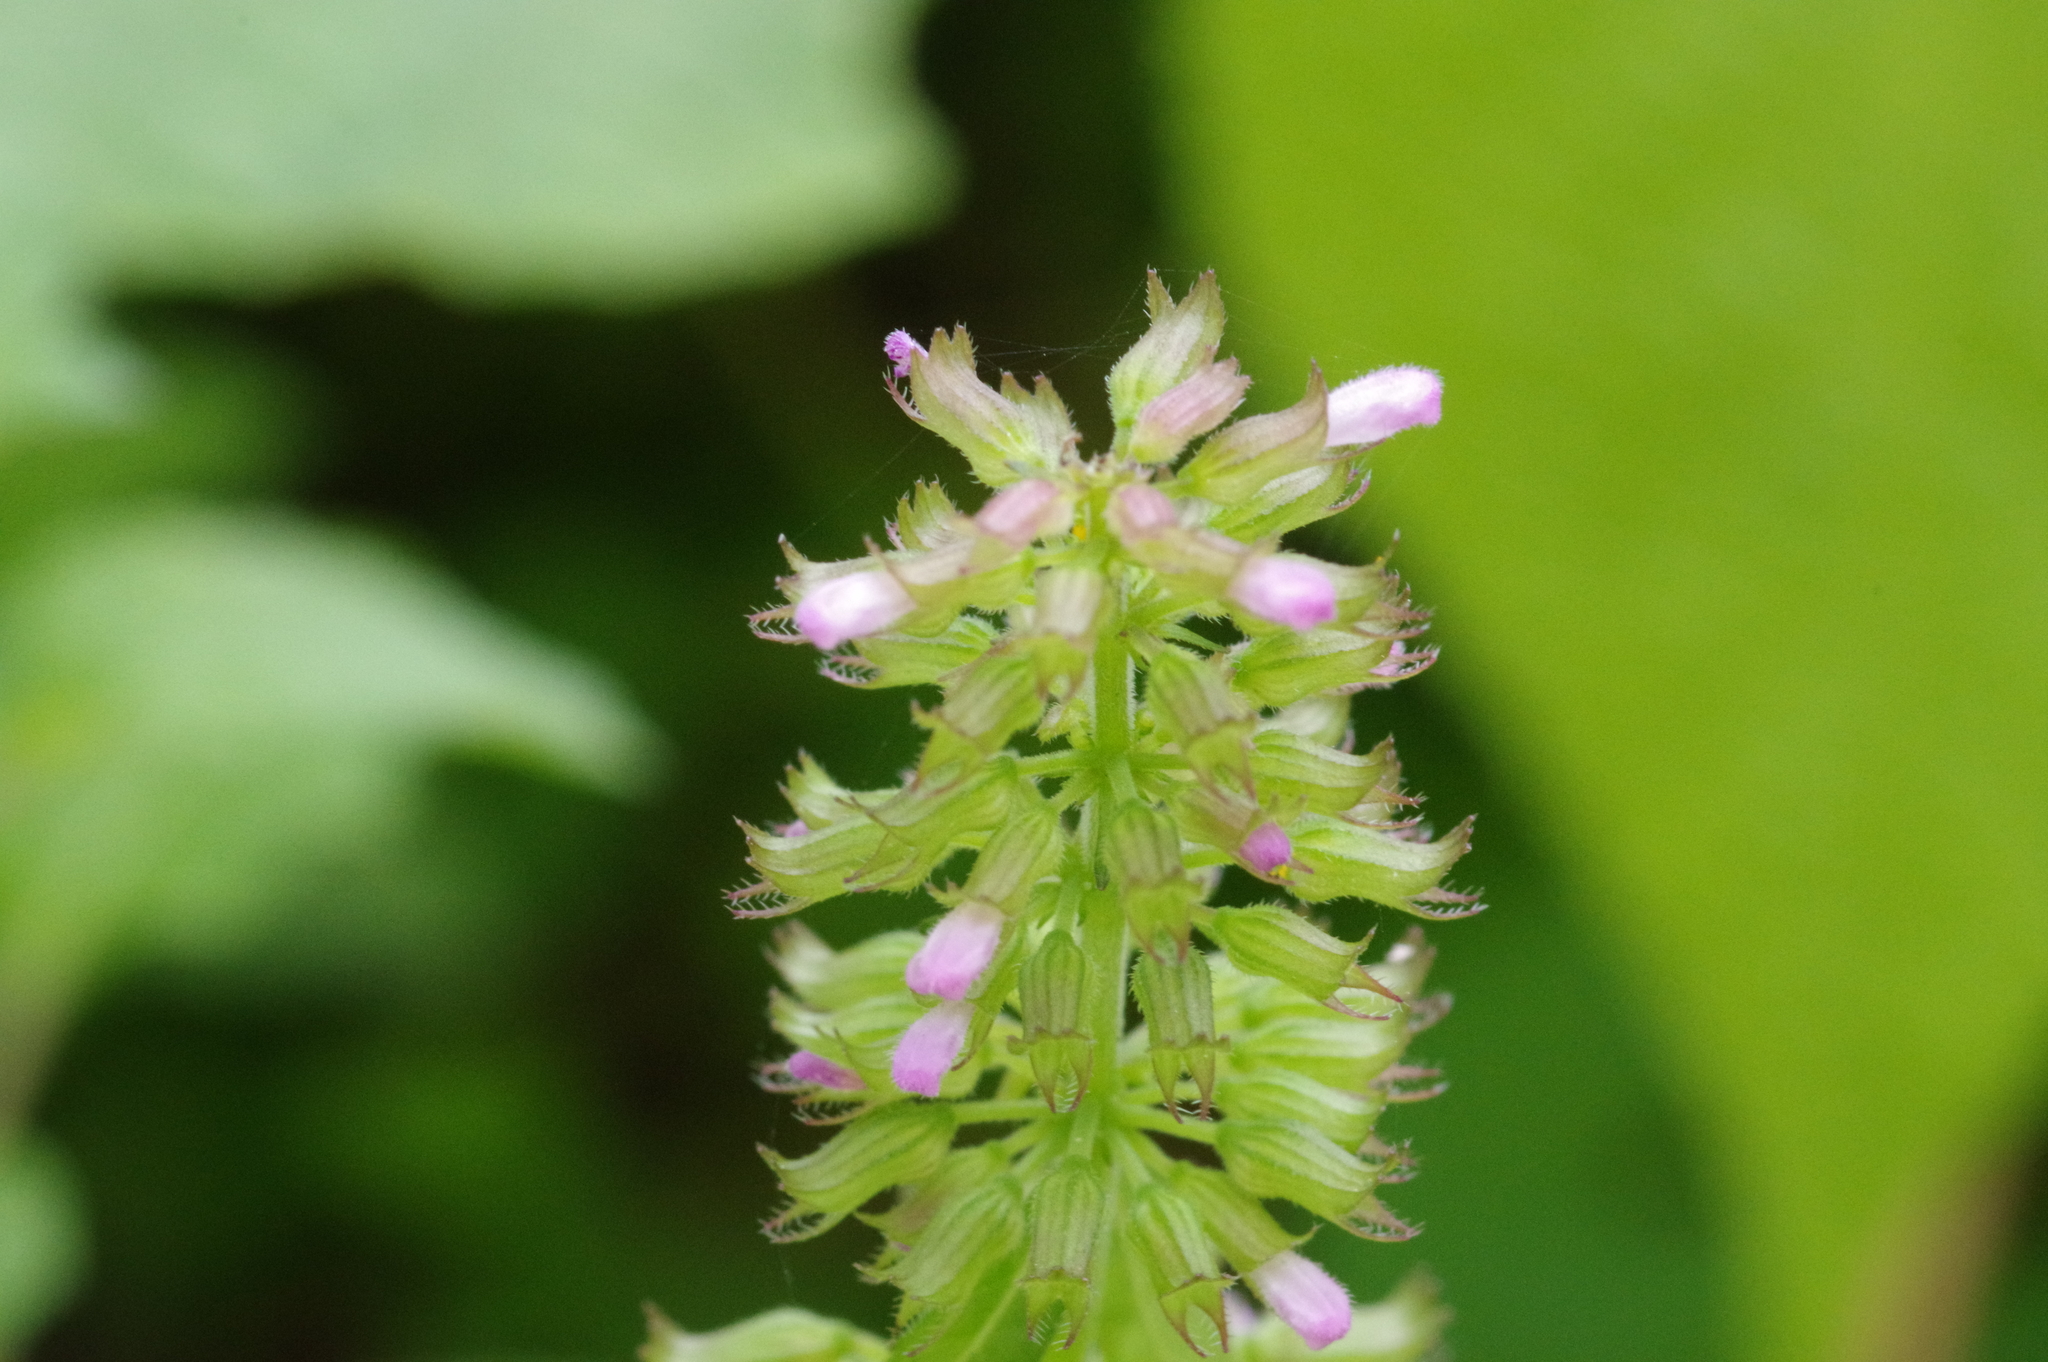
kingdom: Plantae
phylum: Tracheophyta
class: Magnoliopsida
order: Lamiales
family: Lamiaceae
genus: Clinopodium
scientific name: Clinopodium gracile
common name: Slender wild basil
